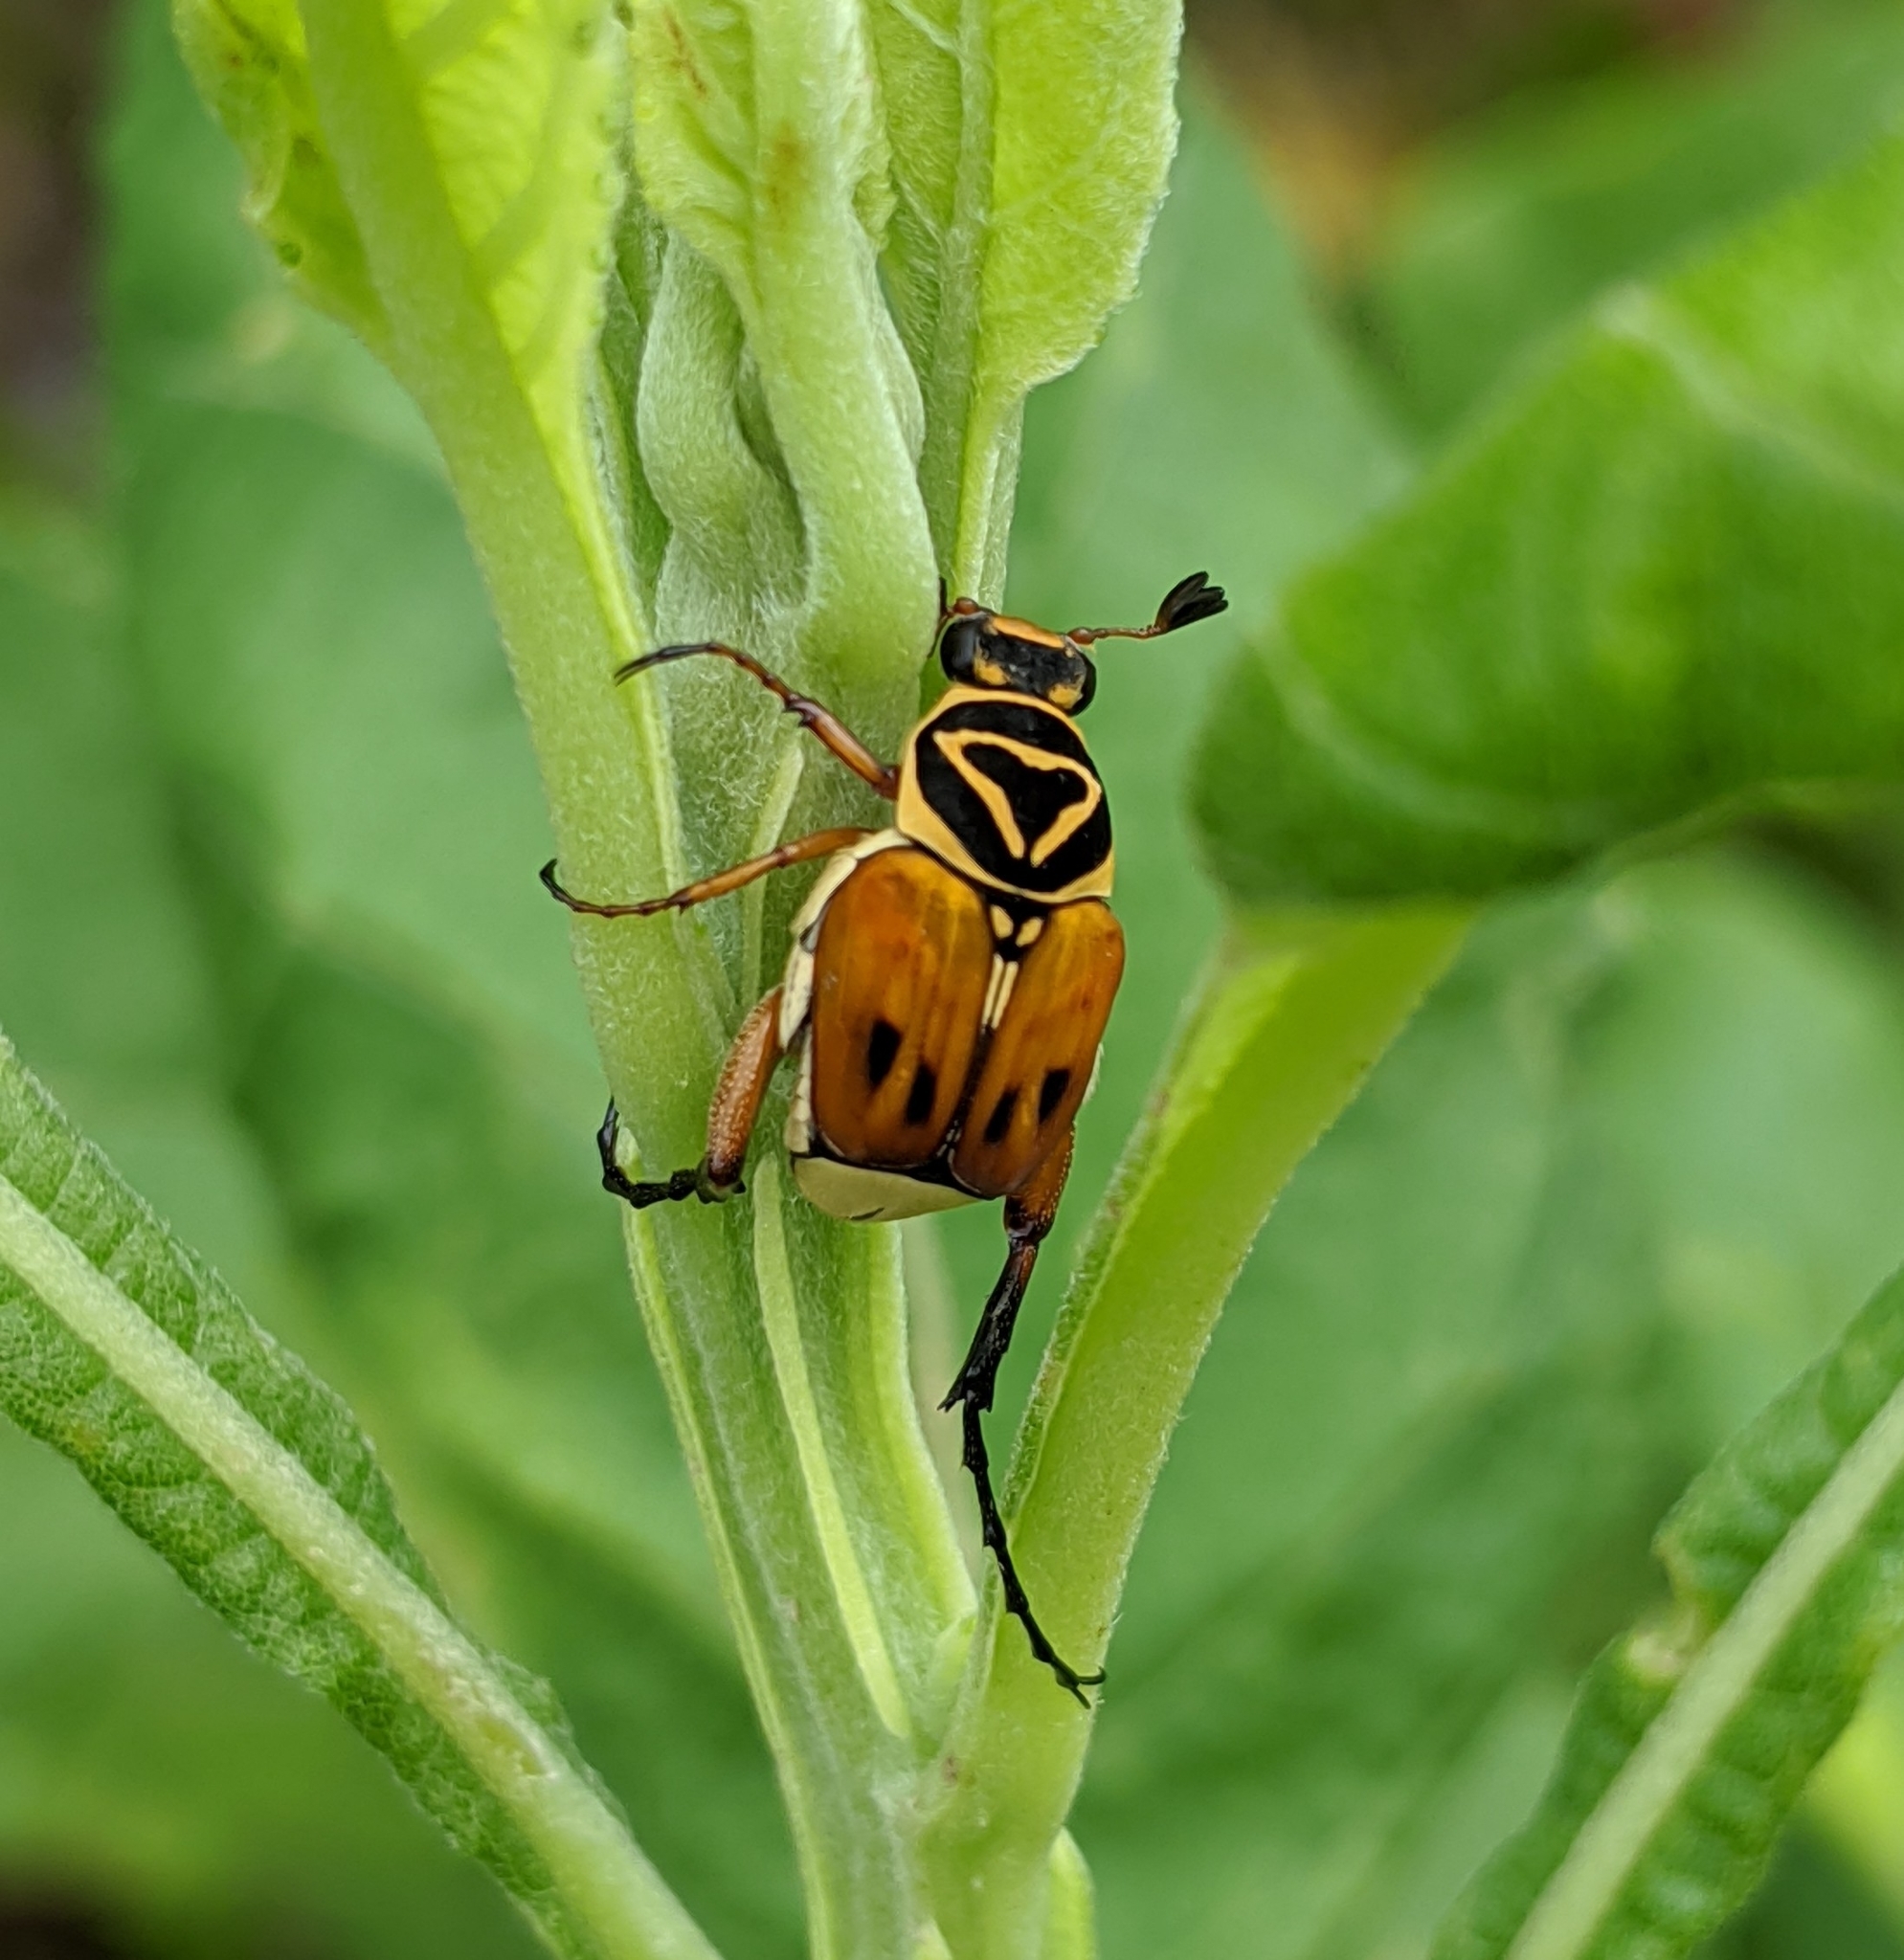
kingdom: Animalia
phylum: Arthropoda
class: Insecta
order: Coleoptera
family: Scarabaeidae
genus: Trigonopeltastes
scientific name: Trigonopeltastes delta
